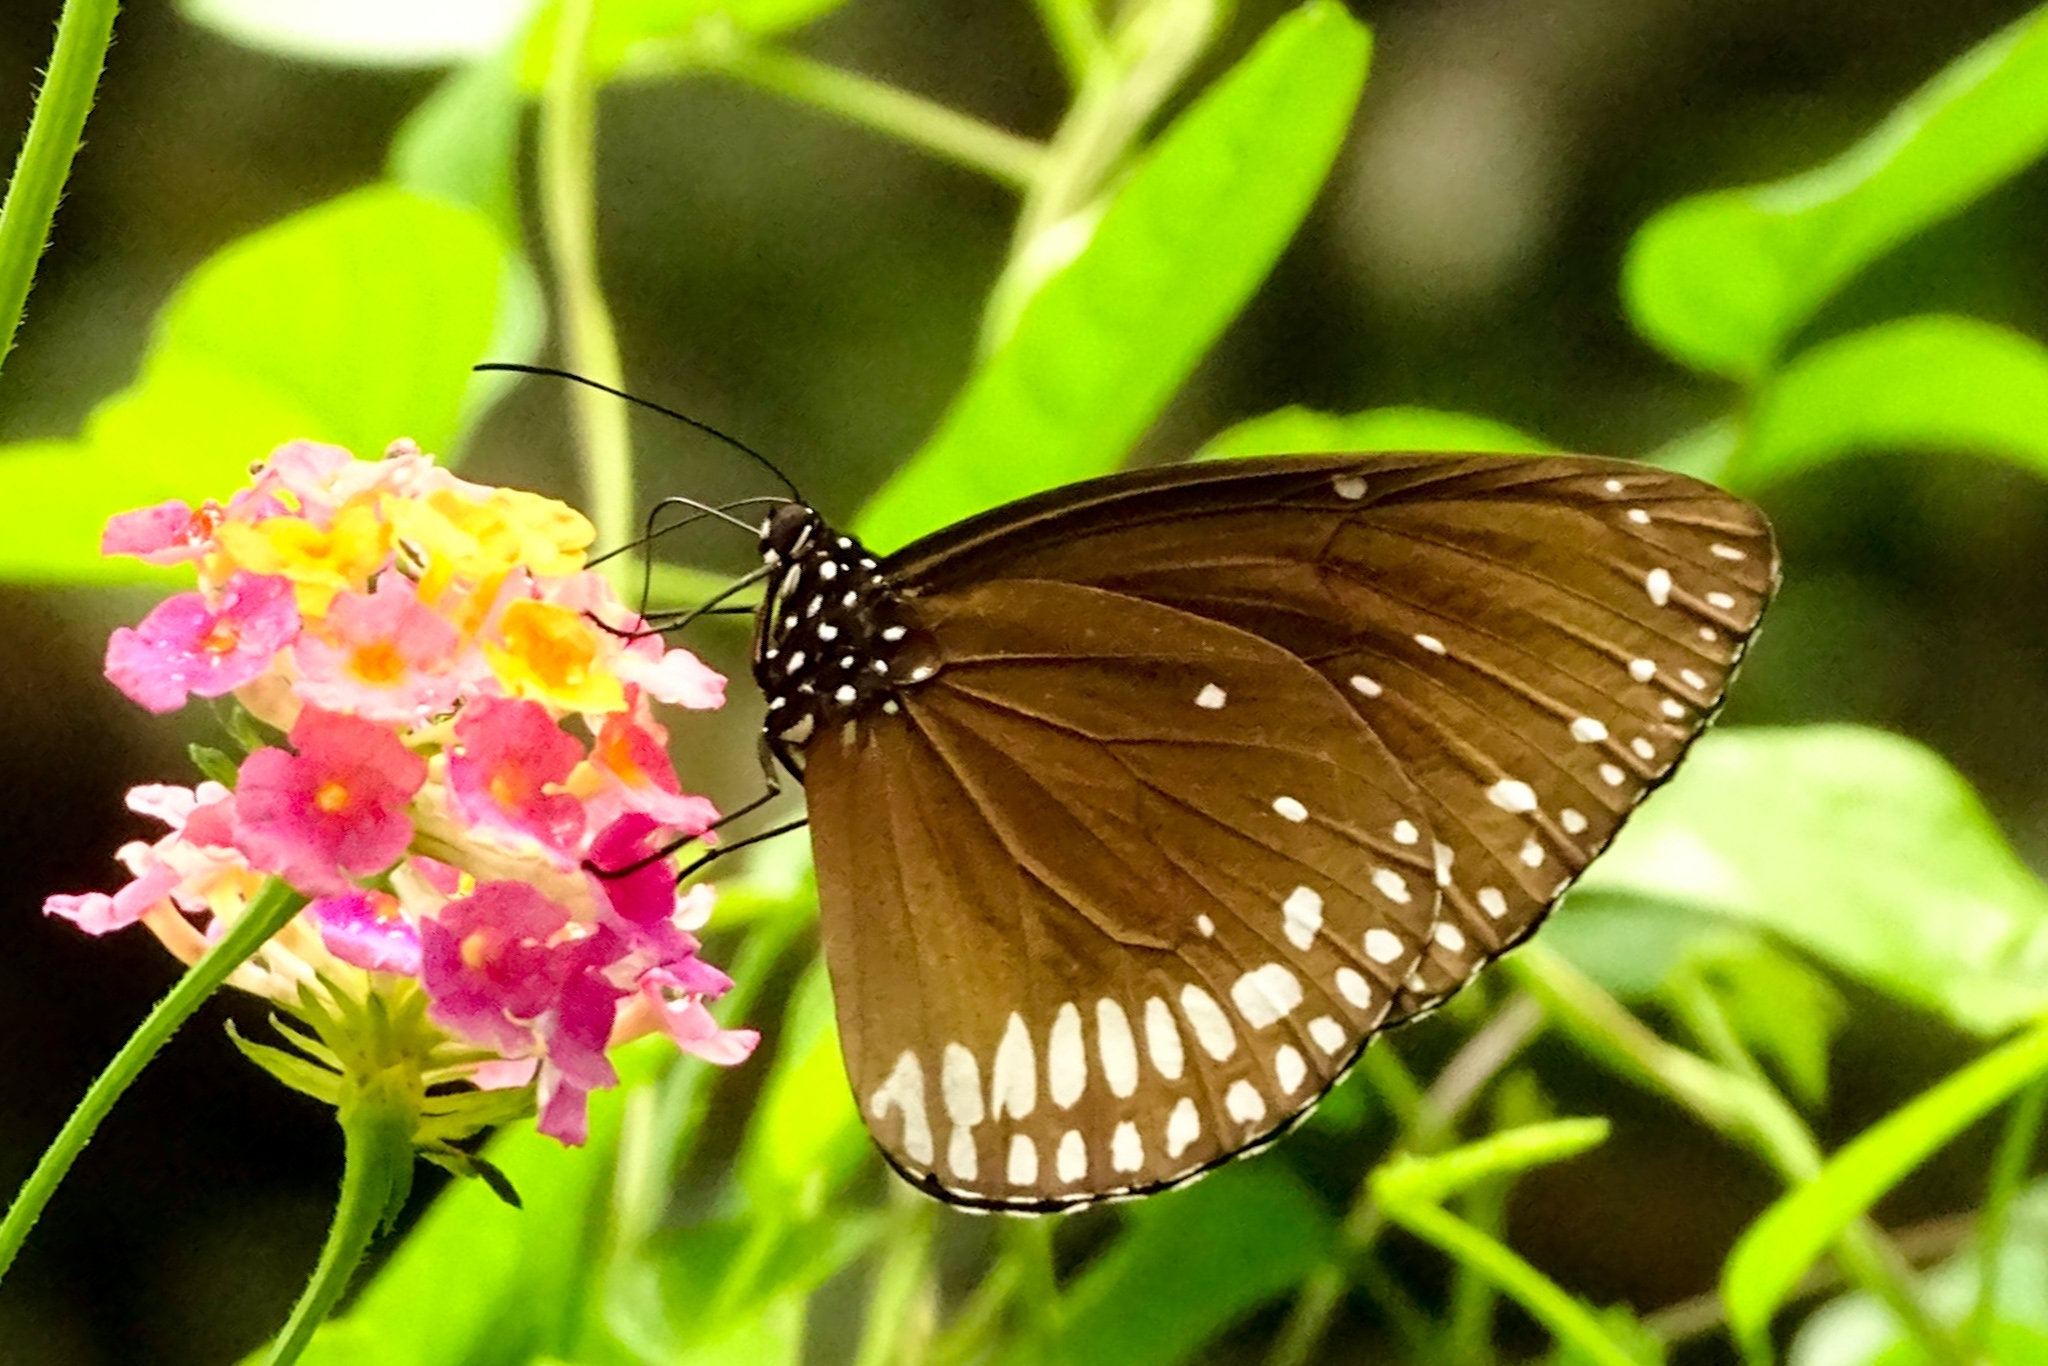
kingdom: Animalia
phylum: Arthropoda
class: Insecta
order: Lepidoptera
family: Nymphalidae
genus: Euploea
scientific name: Euploea klugii
